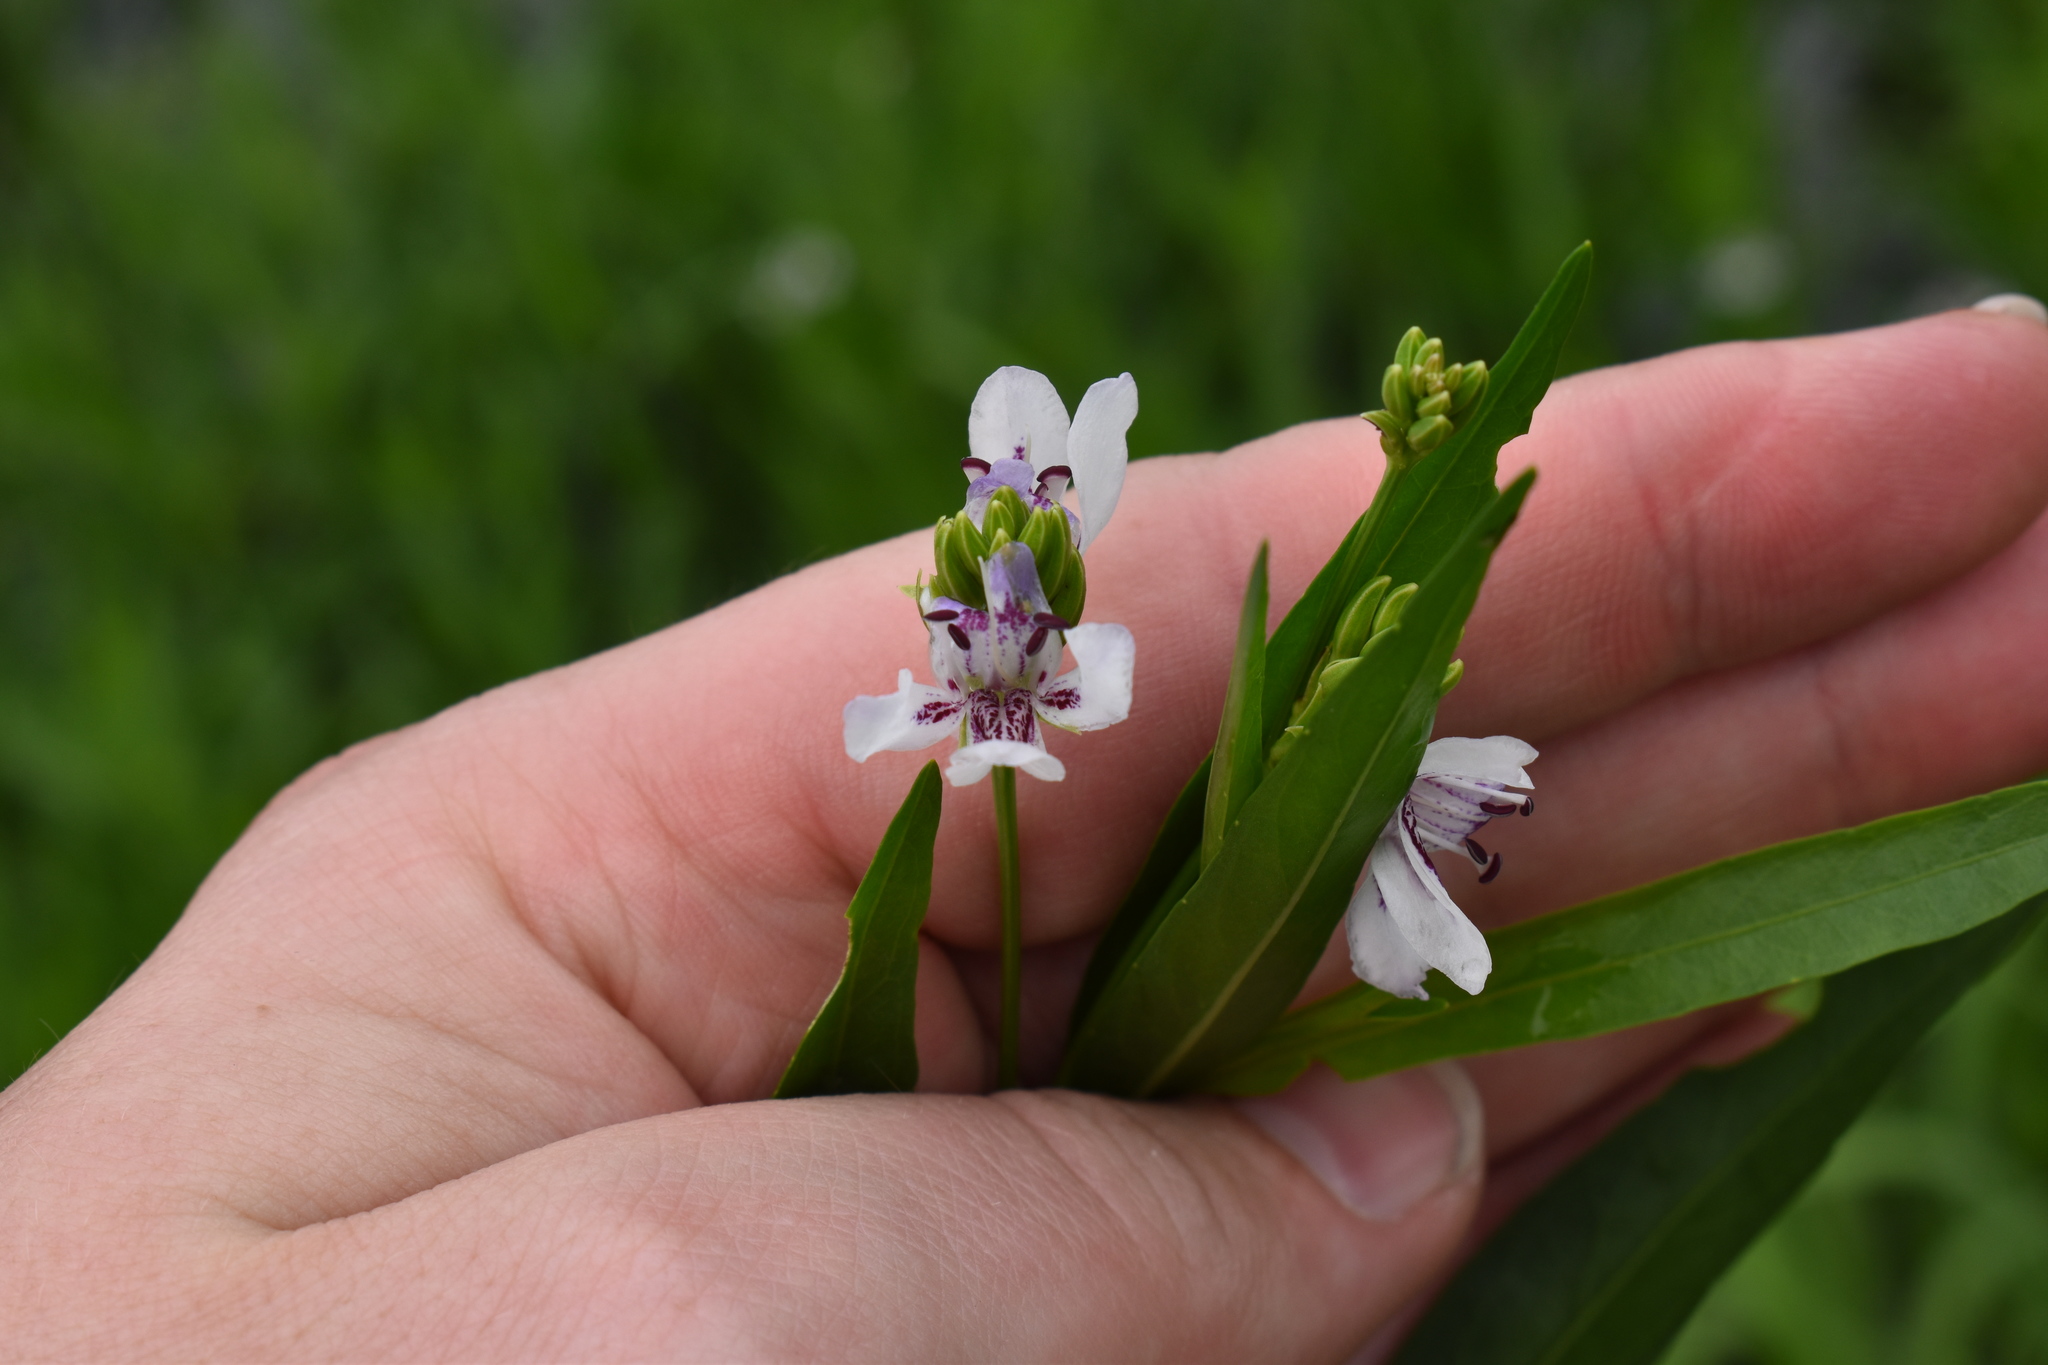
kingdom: Plantae
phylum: Tracheophyta
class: Magnoliopsida
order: Lamiales
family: Acanthaceae
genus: Dianthera
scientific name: Dianthera americana
